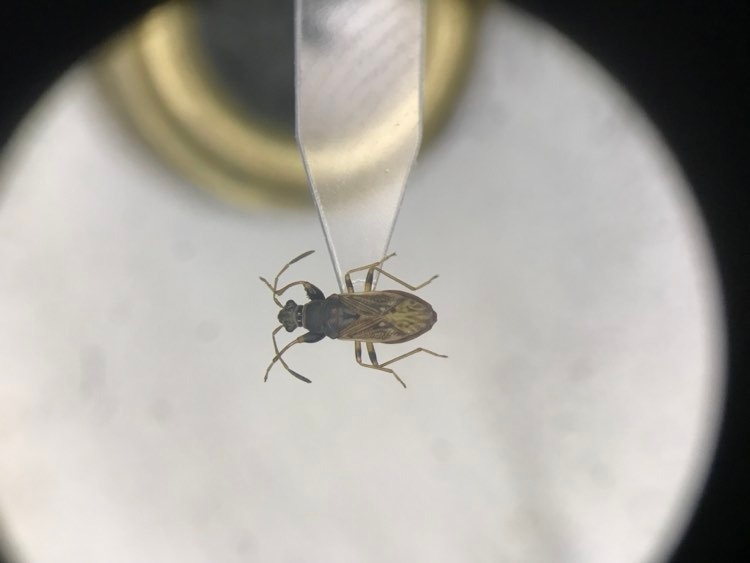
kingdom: Animalia
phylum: Arthropoda
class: Insecta
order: Hemiptera
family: Rhyparochromidae
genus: Pseudopachybrachius
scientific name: Pseudopachybrachius basalis
